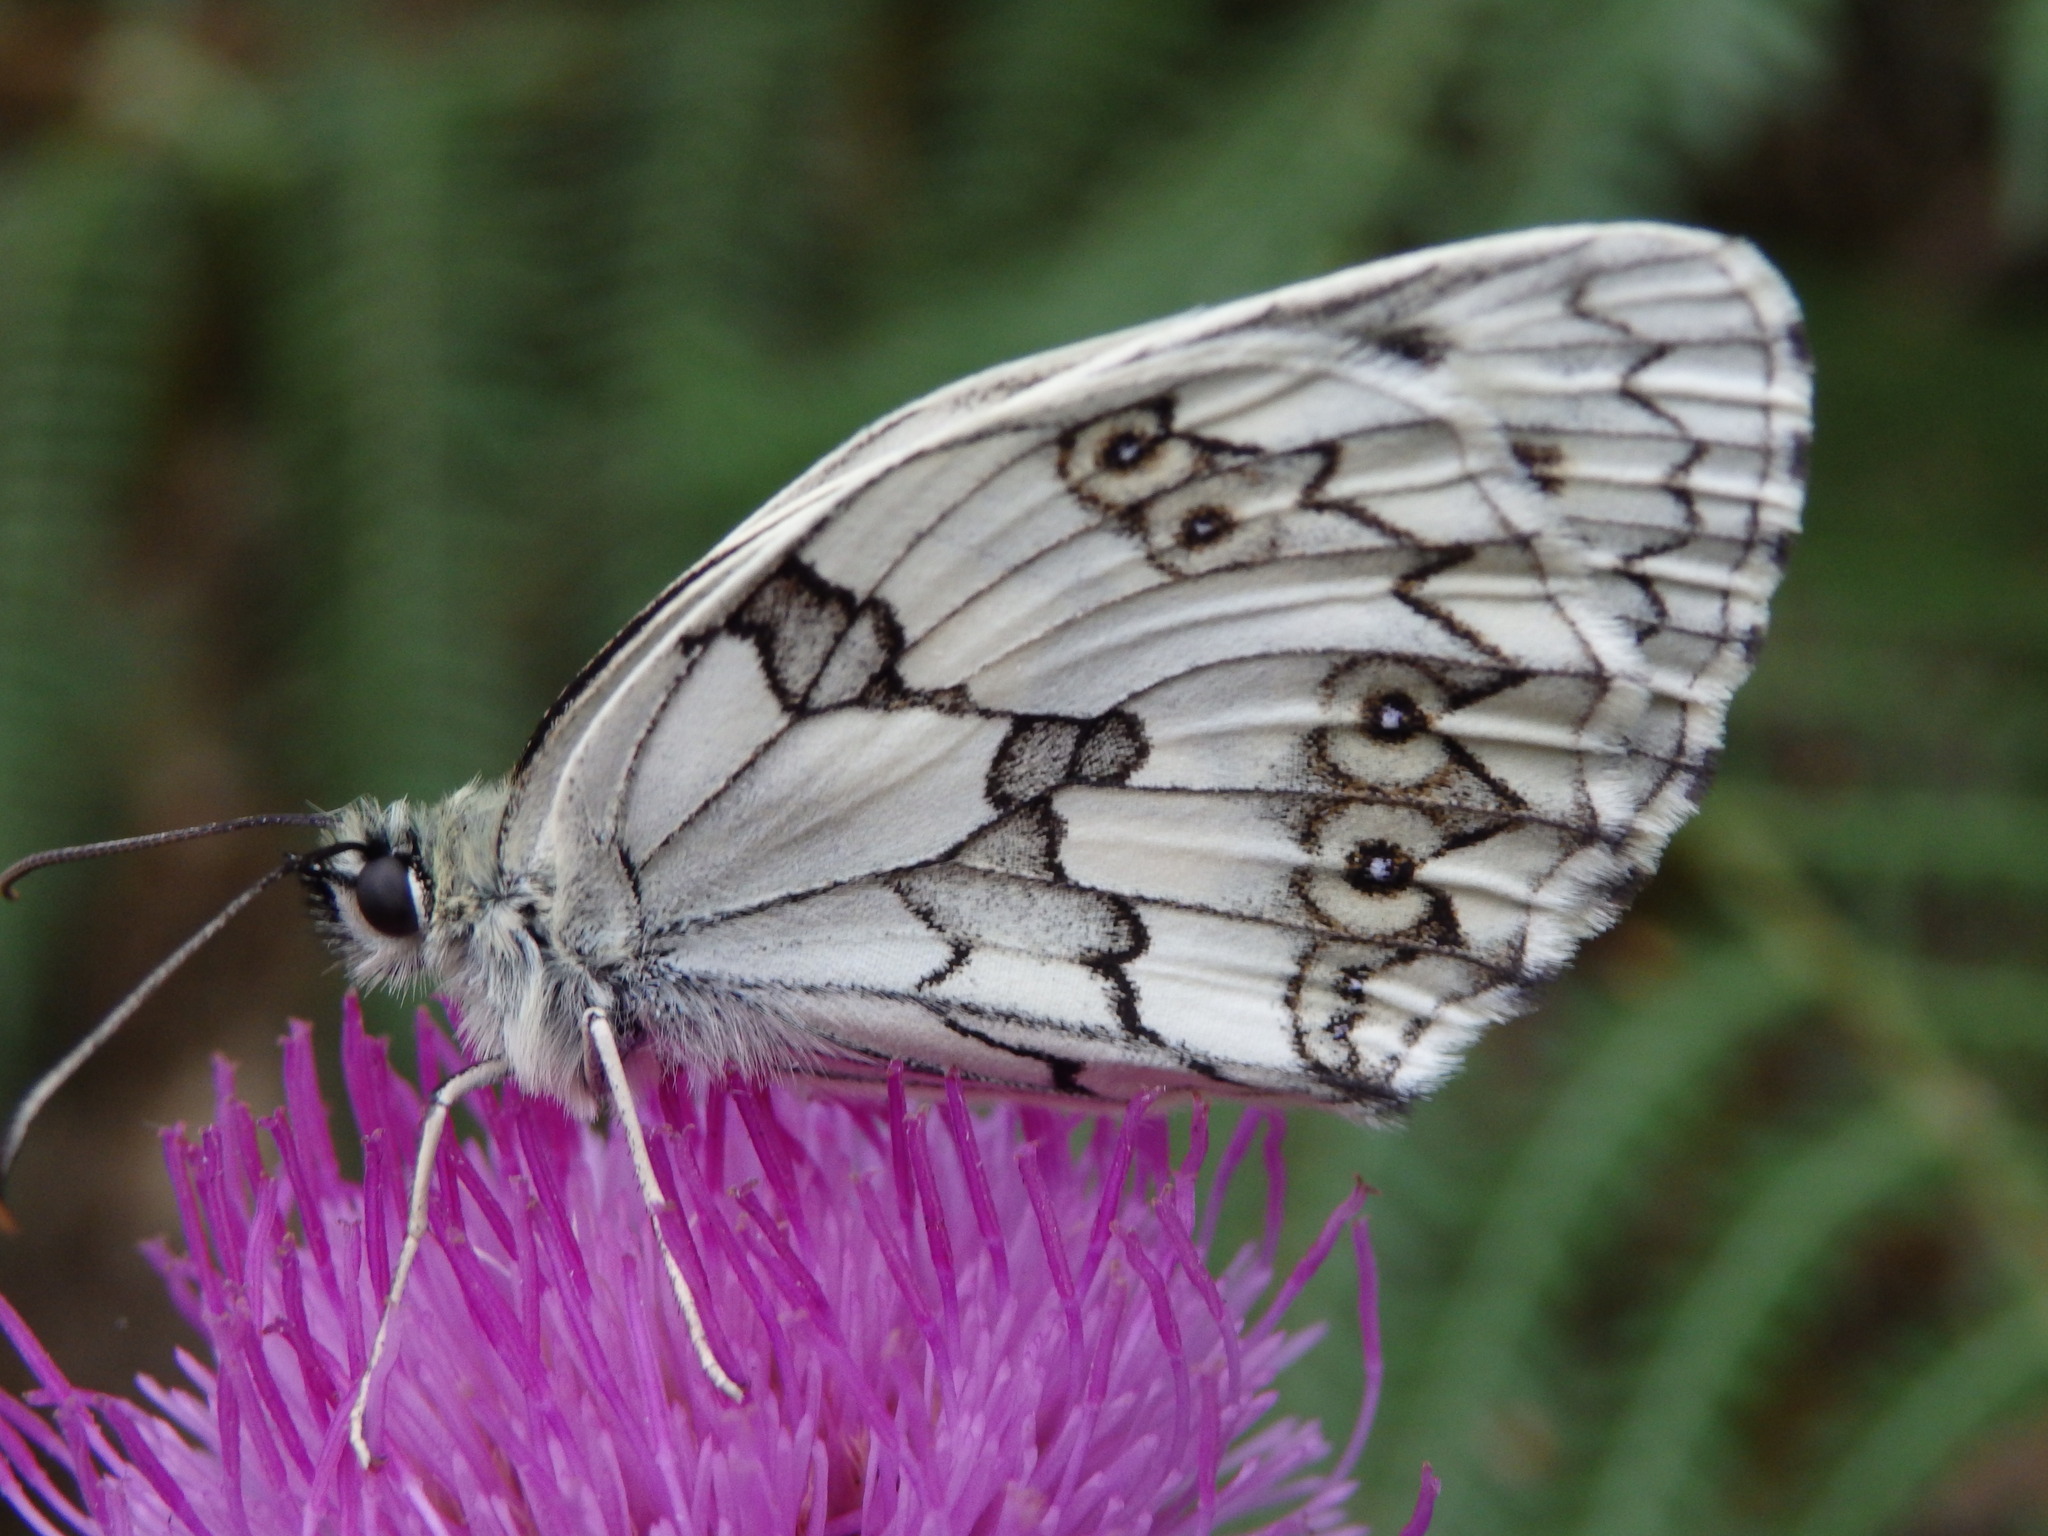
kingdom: Animalia
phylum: Arthropoda
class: Insecta
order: Lepidoptera
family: Nymphalidae
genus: Melanargia
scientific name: Melanargia lachesis
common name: Iberian marbled white
